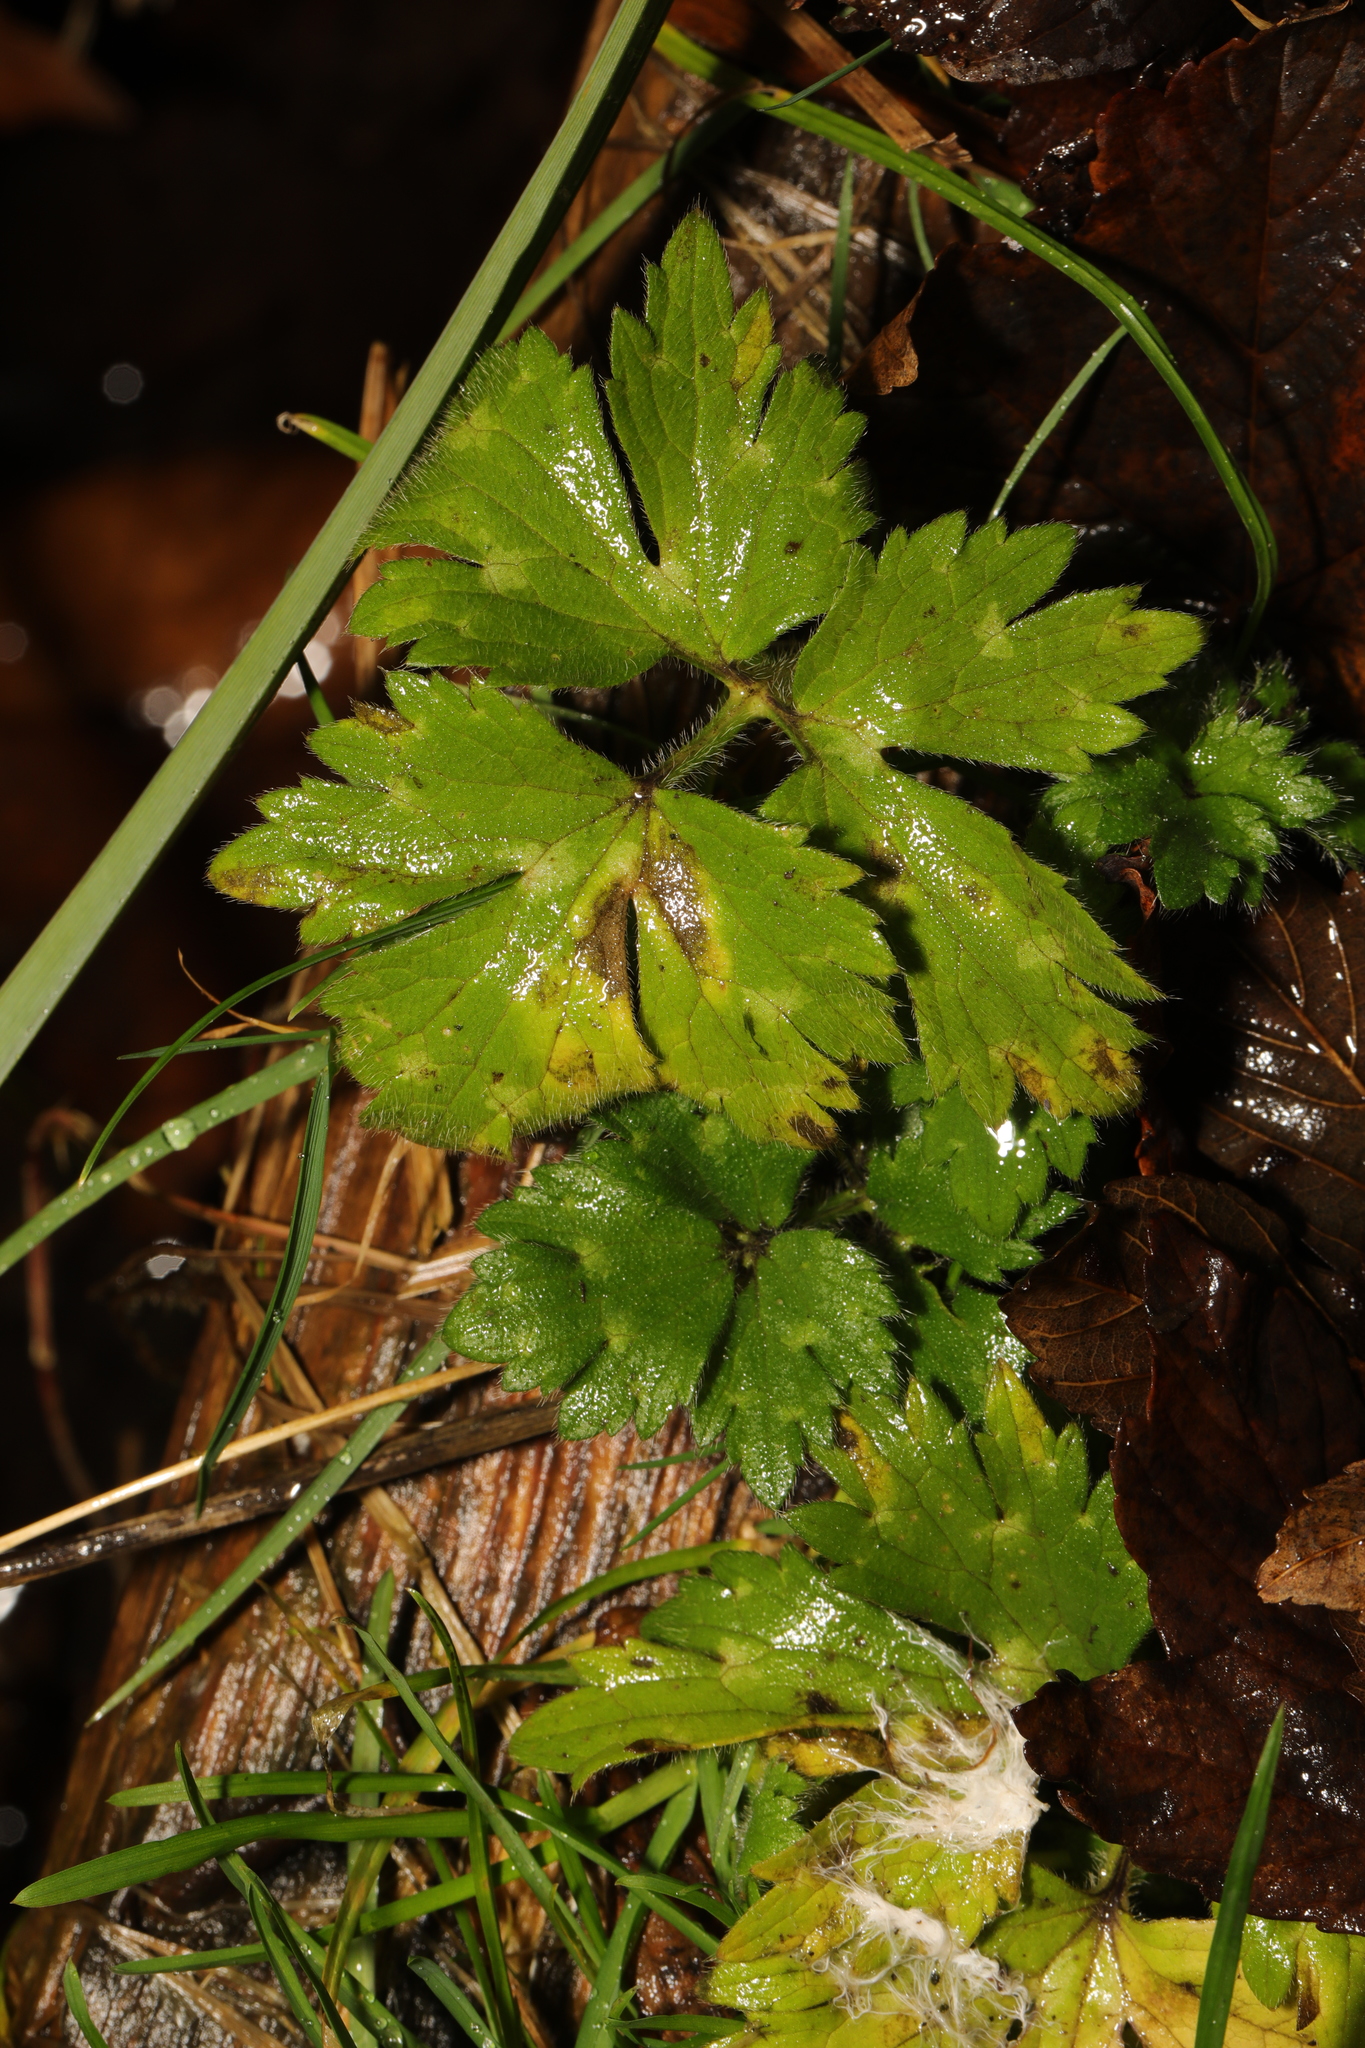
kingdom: Plantae
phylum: Tracheophyta
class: Magnoliopsida
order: Ranunculales
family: Ranunculaceae
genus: Ranunculus
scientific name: Ranunculus repens
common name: Creeping buttercup
